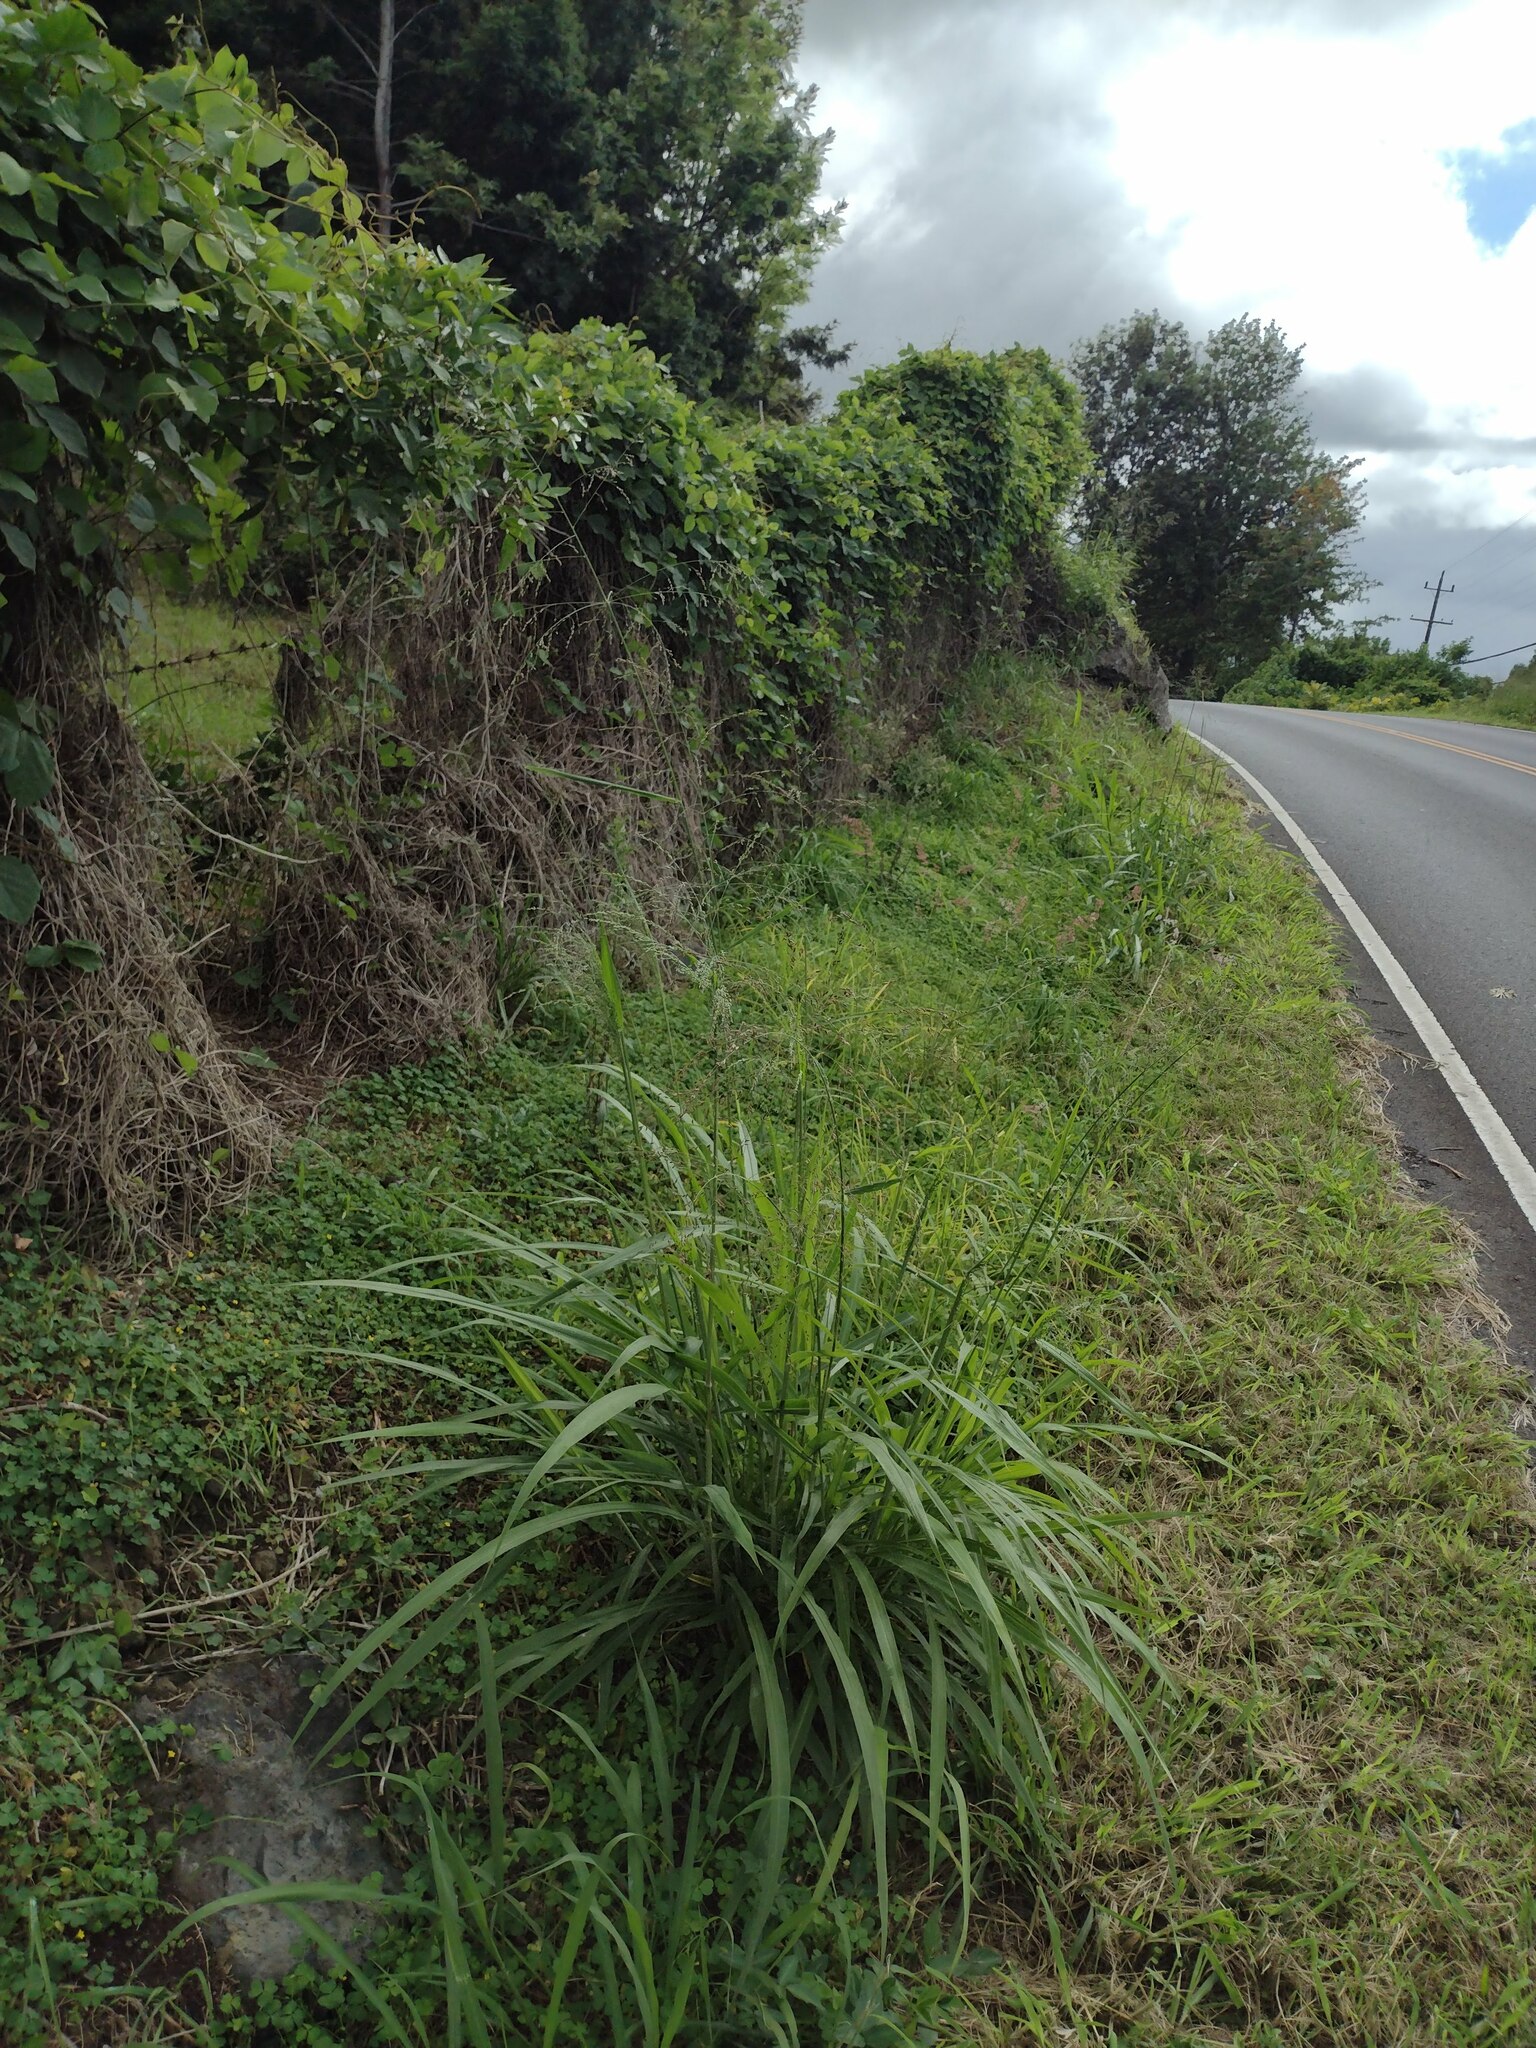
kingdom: Plantae
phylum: Tracheophyta
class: Liliopsida
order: Poales
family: Poaceae
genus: Megathyrsus
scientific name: Megathyrsus maximus
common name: Guineagrass
